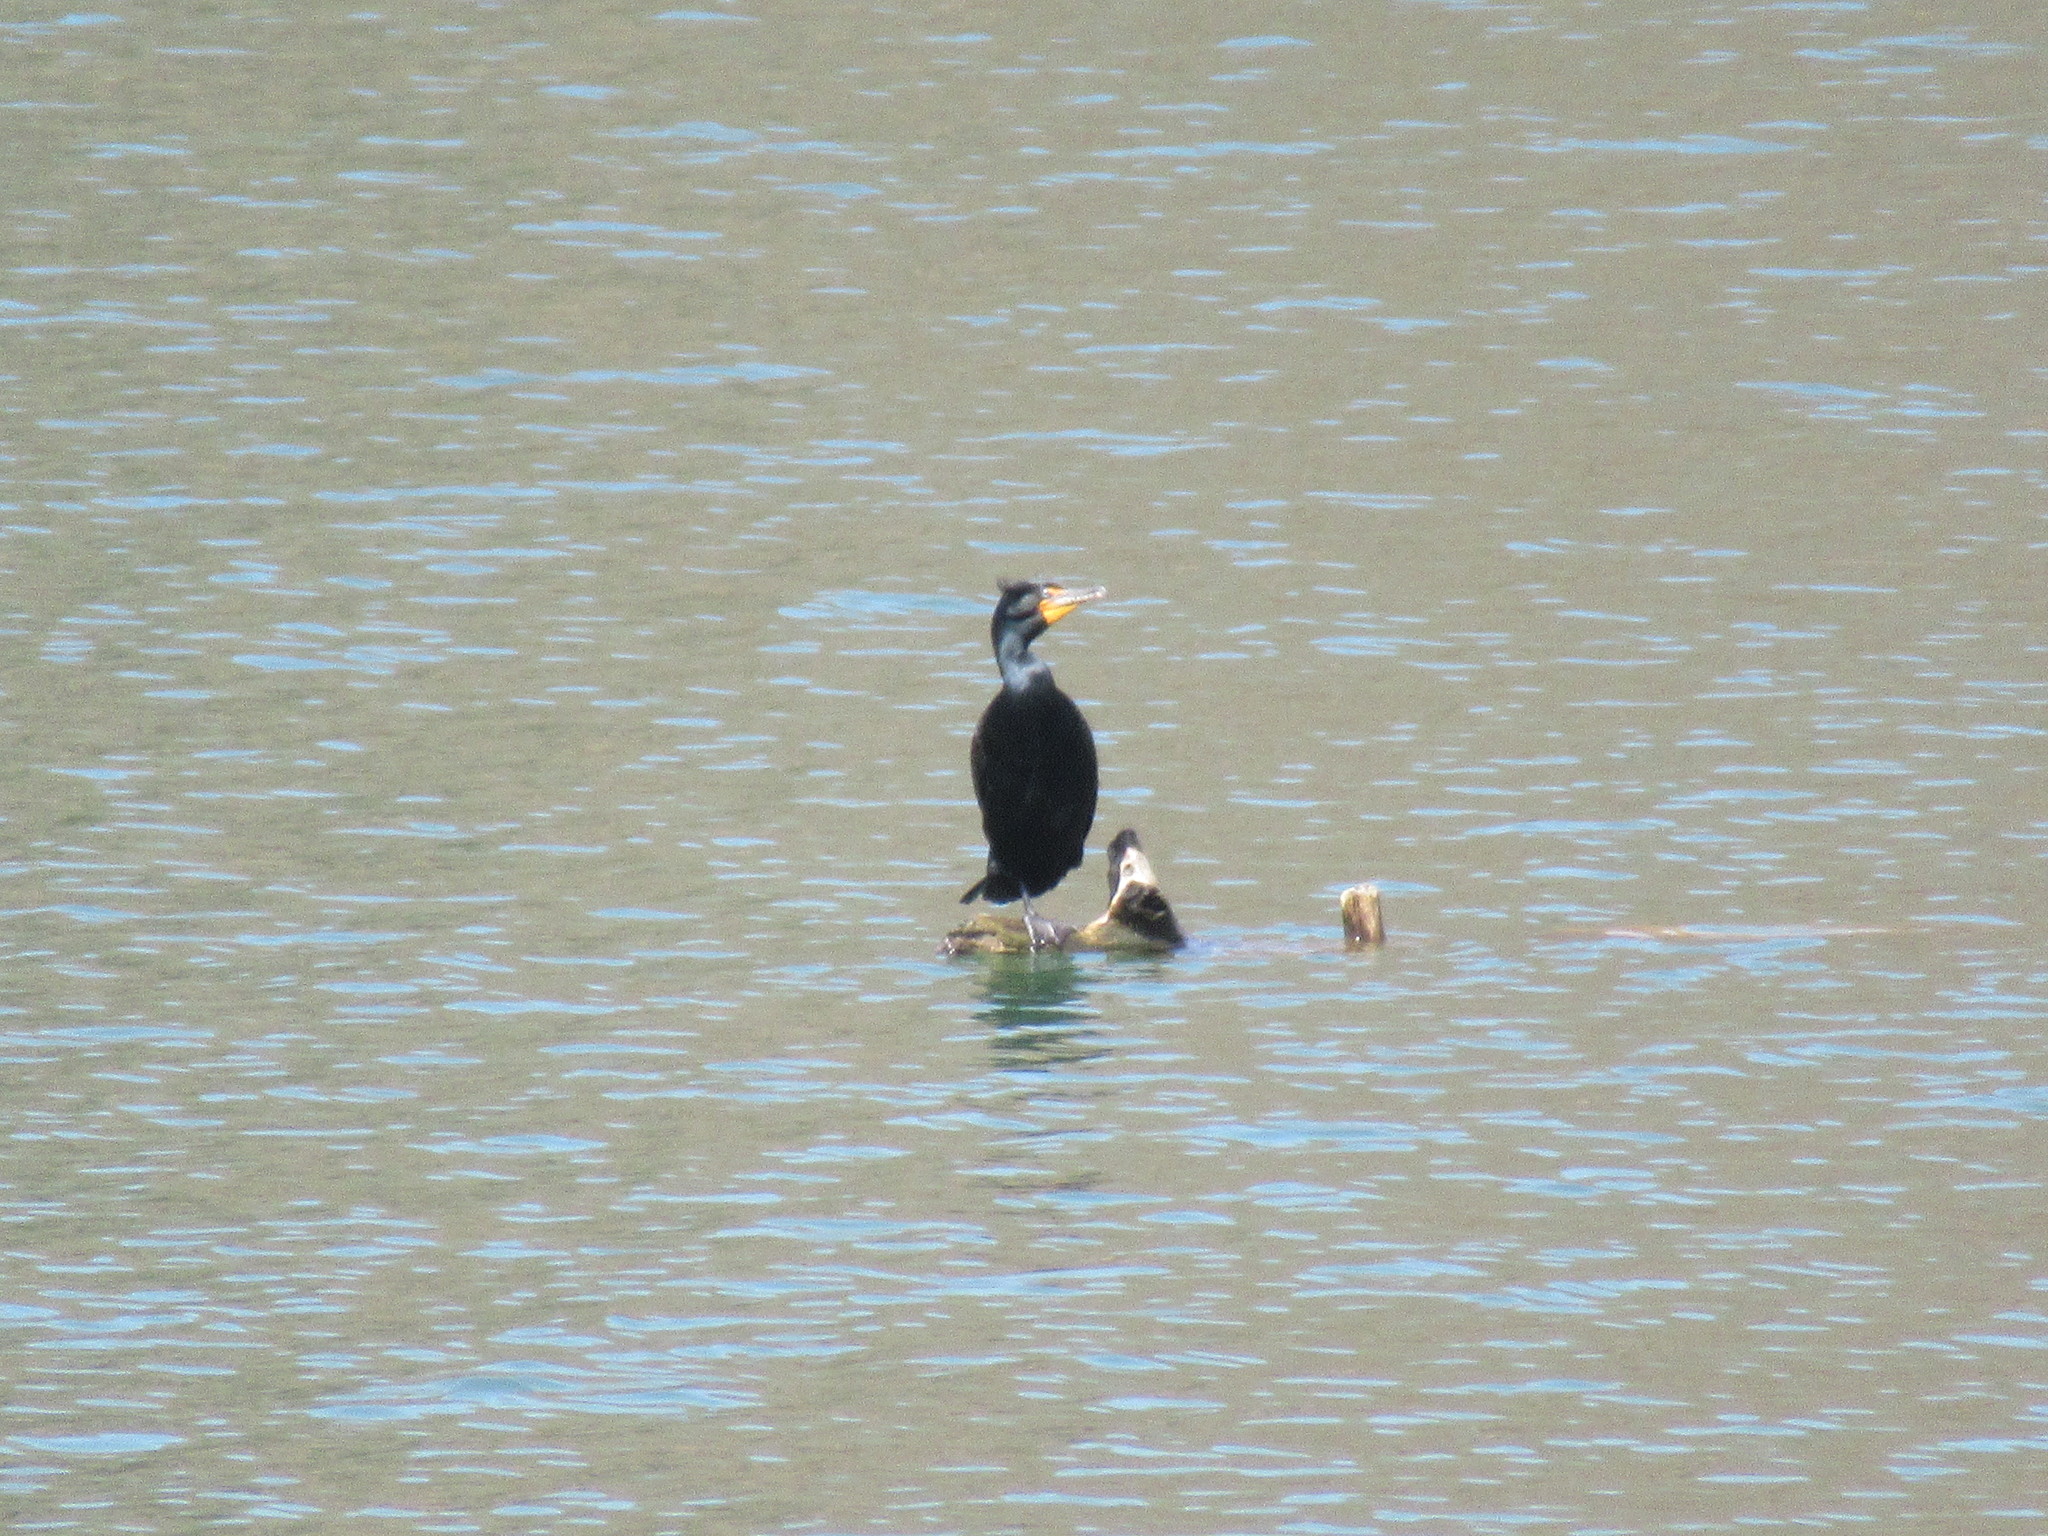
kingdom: Animalia
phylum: Chordata
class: Aves
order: Suliformes
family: Phalacrocoracidae
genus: Phalacrocorax
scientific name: Phalacrocorax auritus
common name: Double-crested cormorant
